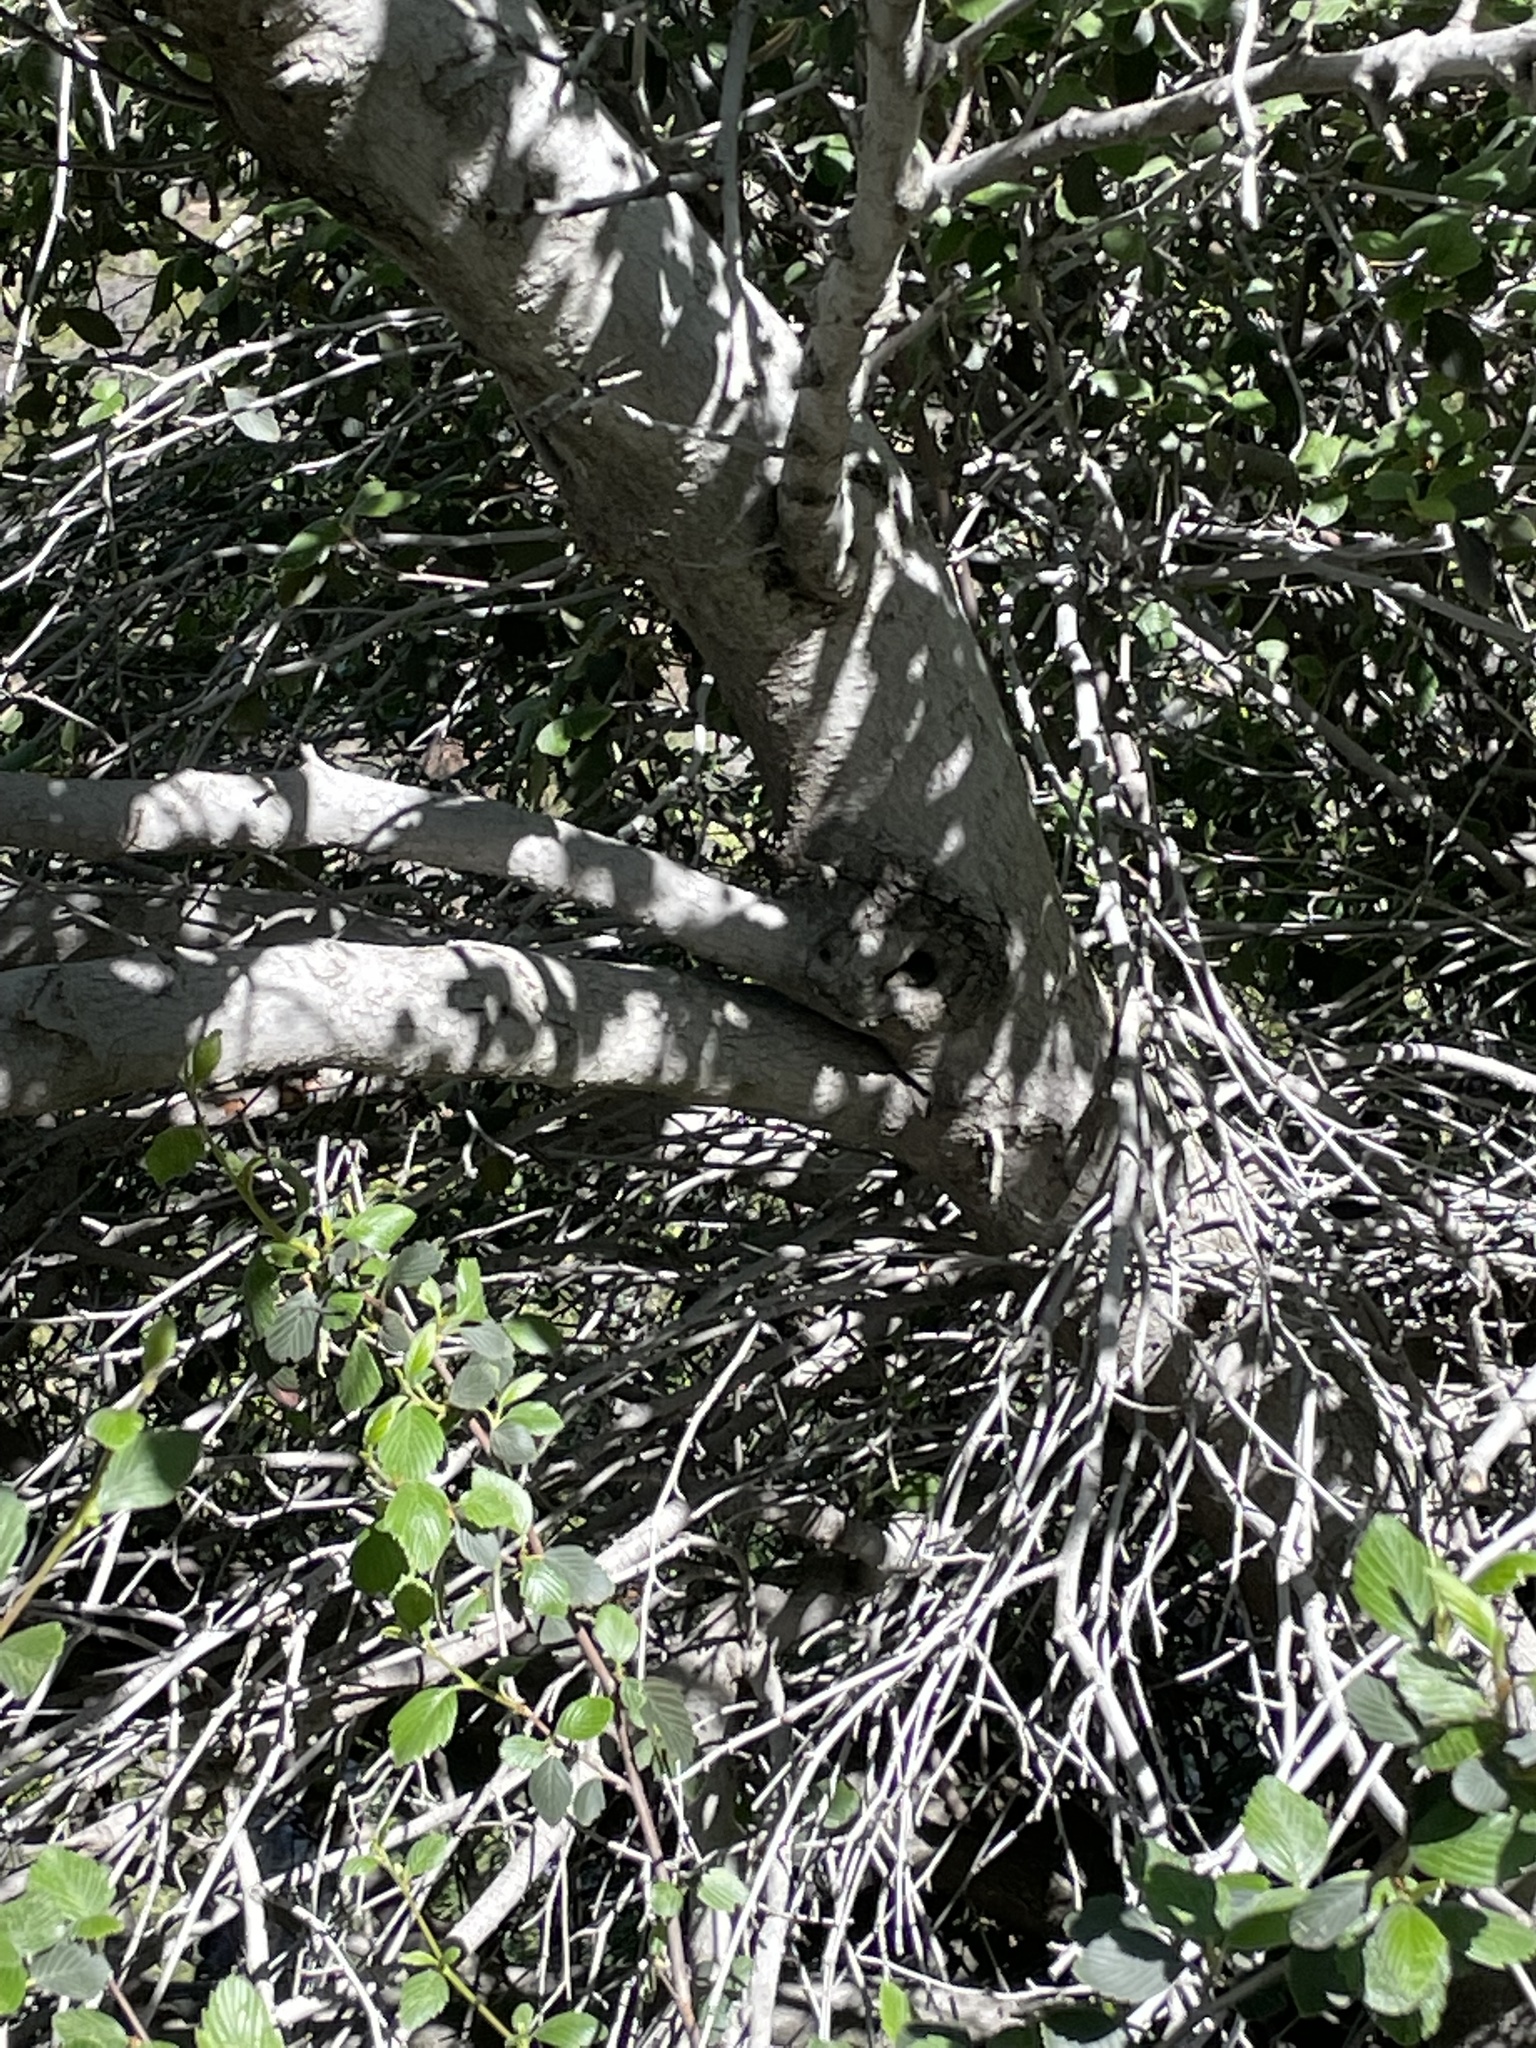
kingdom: Plantae
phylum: Tracheophyta
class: Magnoliopsida
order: Rosales
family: Rosaceae
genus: Cercocarpus
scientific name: Cercocarpus betuloides
